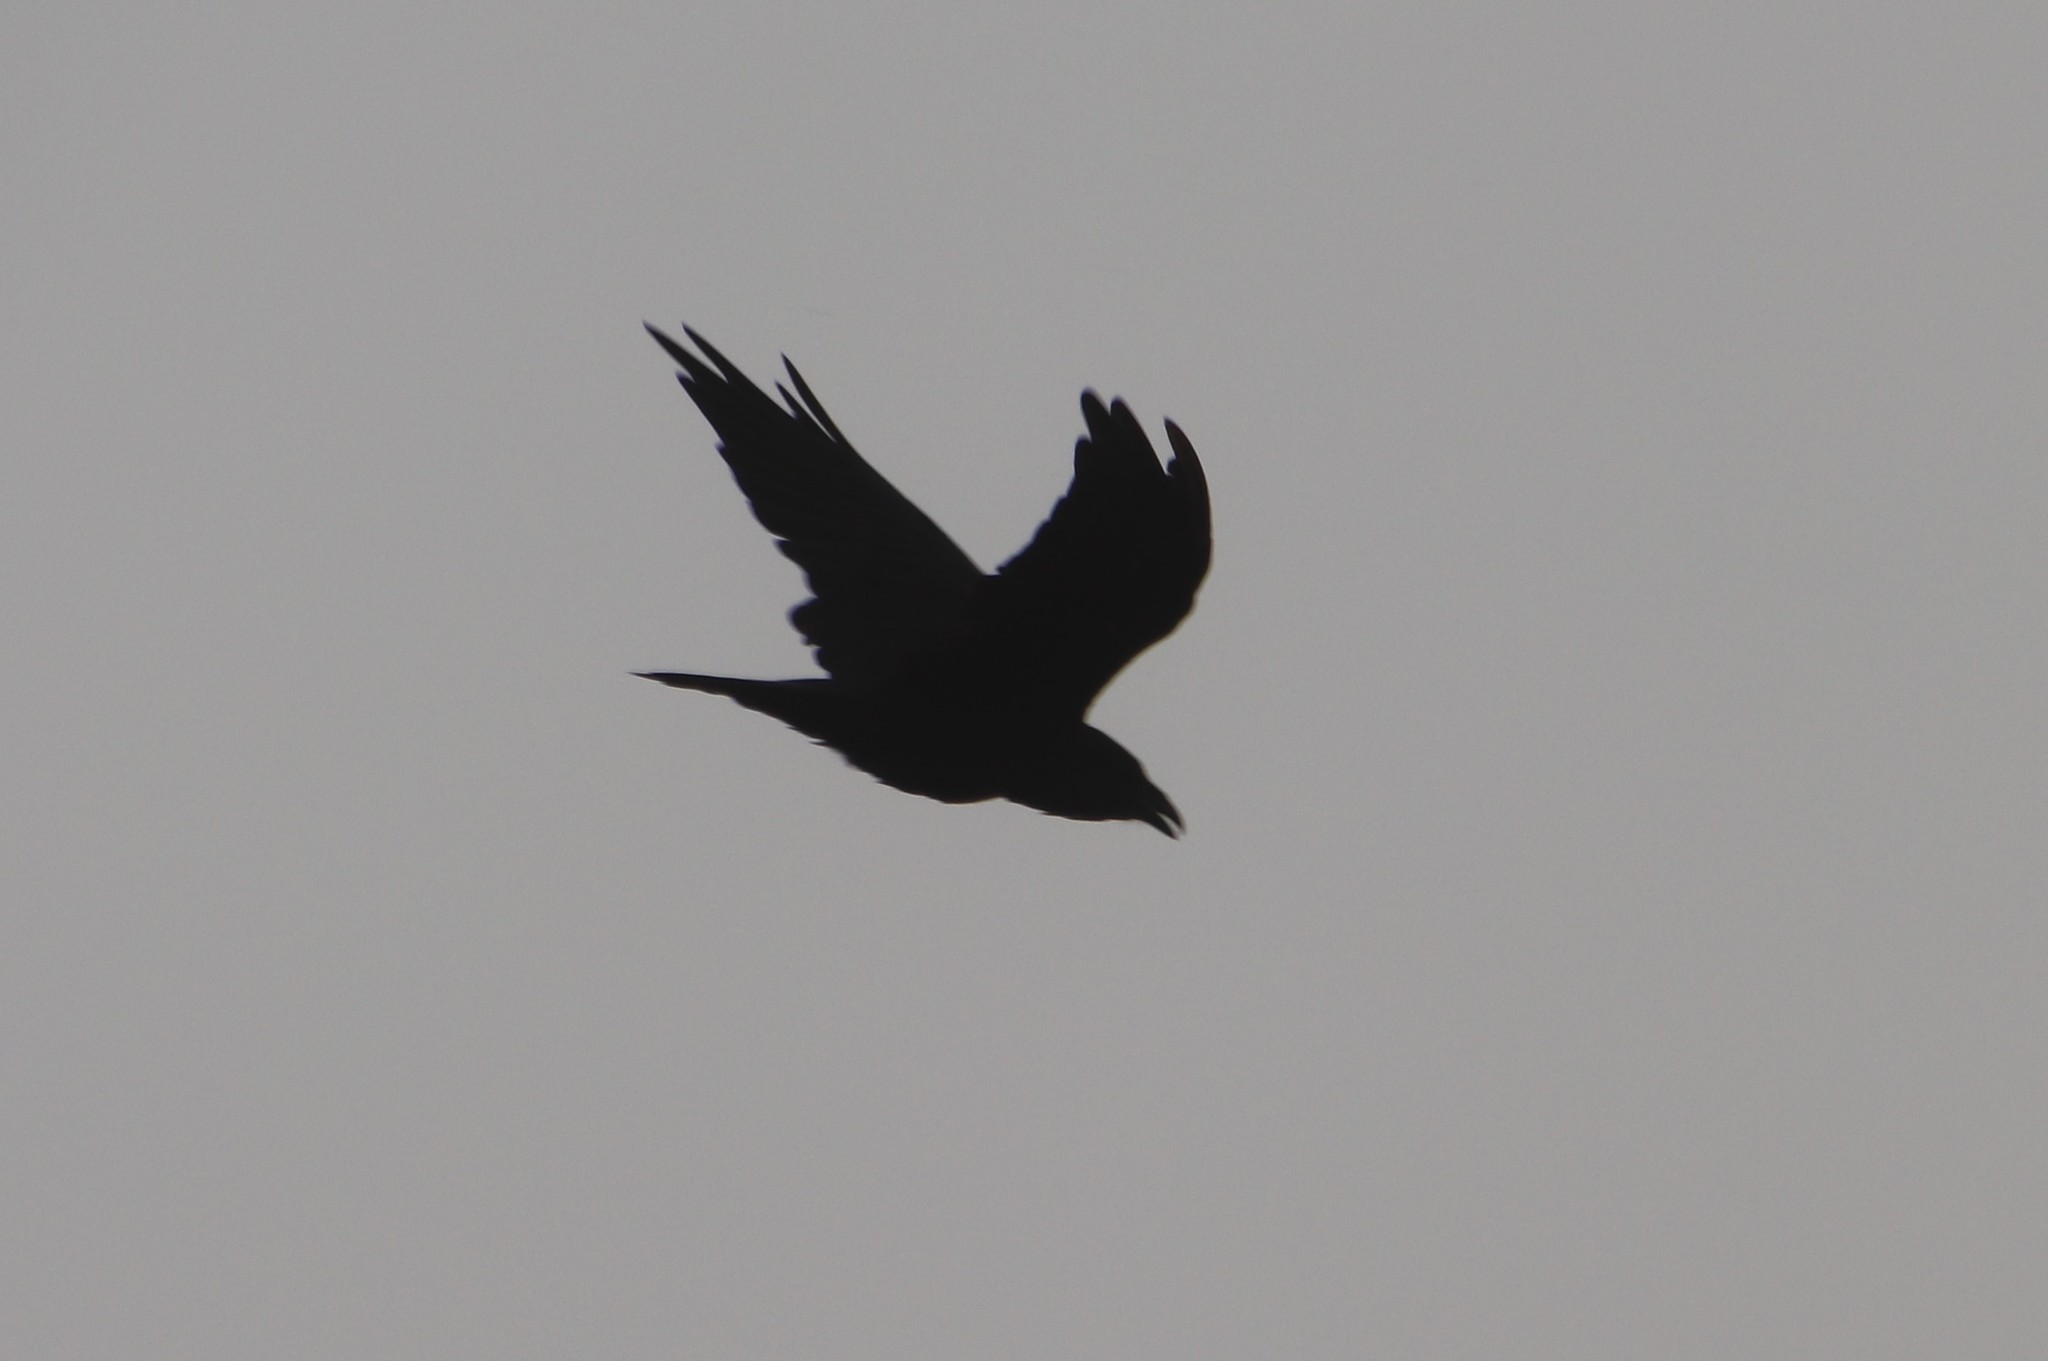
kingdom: Animalia
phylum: Chordata
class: Aves
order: Passeriformes
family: Corvidae
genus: Corvus
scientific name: Corvus corax
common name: Common raven
